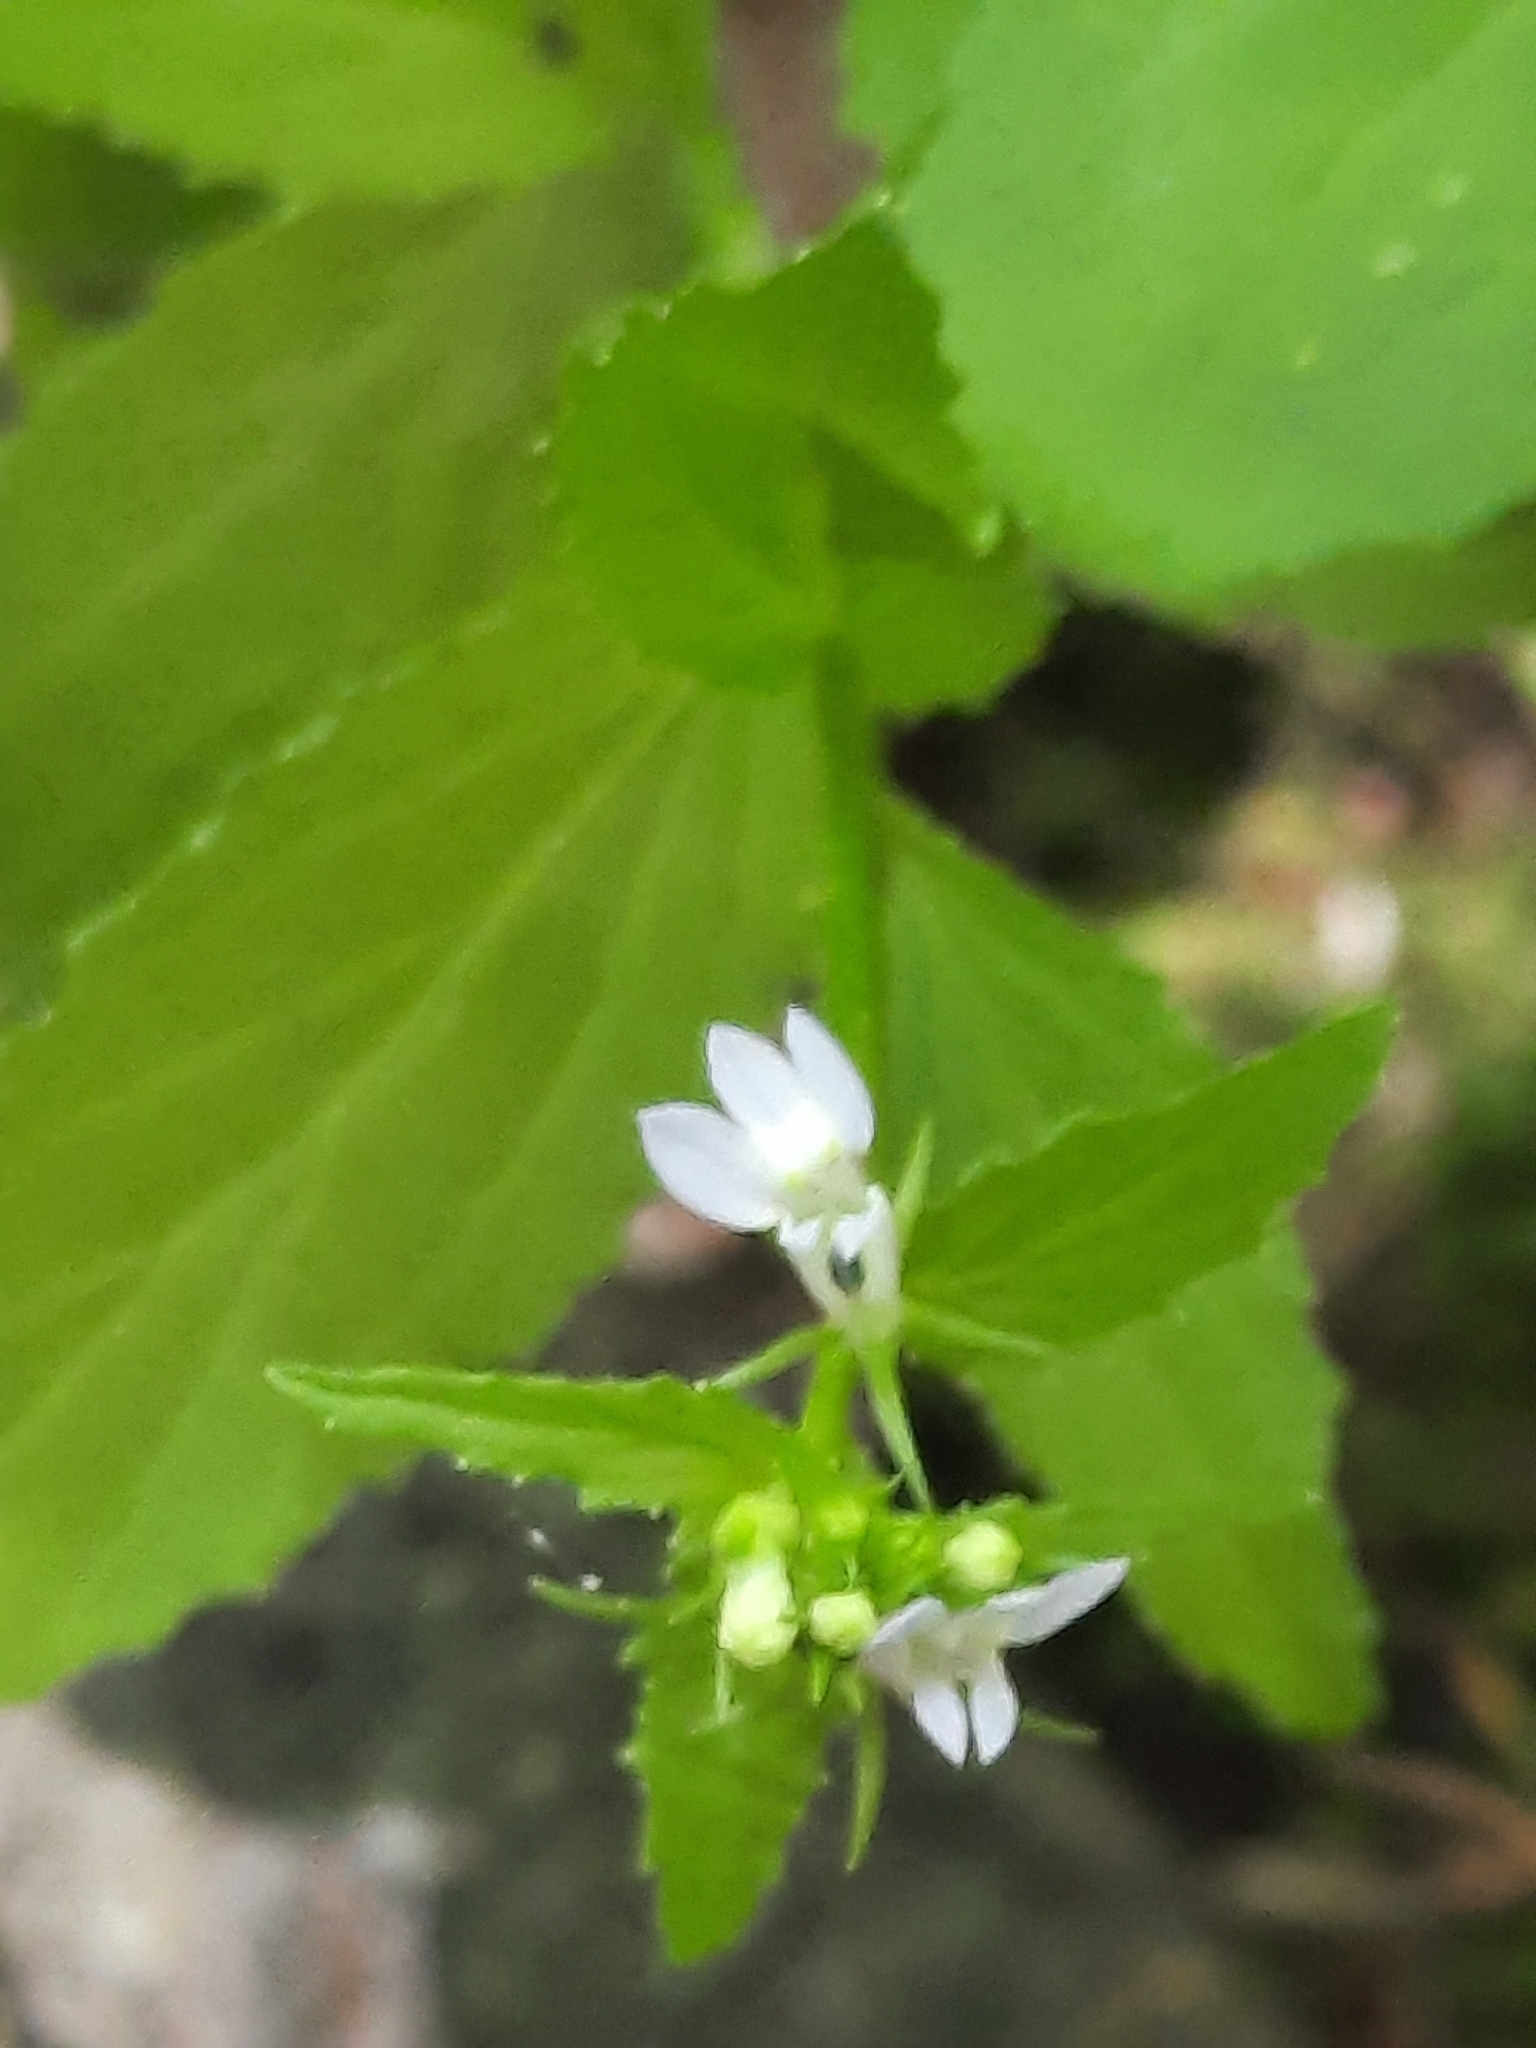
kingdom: Plantae
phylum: Tracheophyta
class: Magnoliopsida
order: Asterales
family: Campanulaceae
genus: Lobelia
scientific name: Lobelia inflata
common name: Indian tobacco
